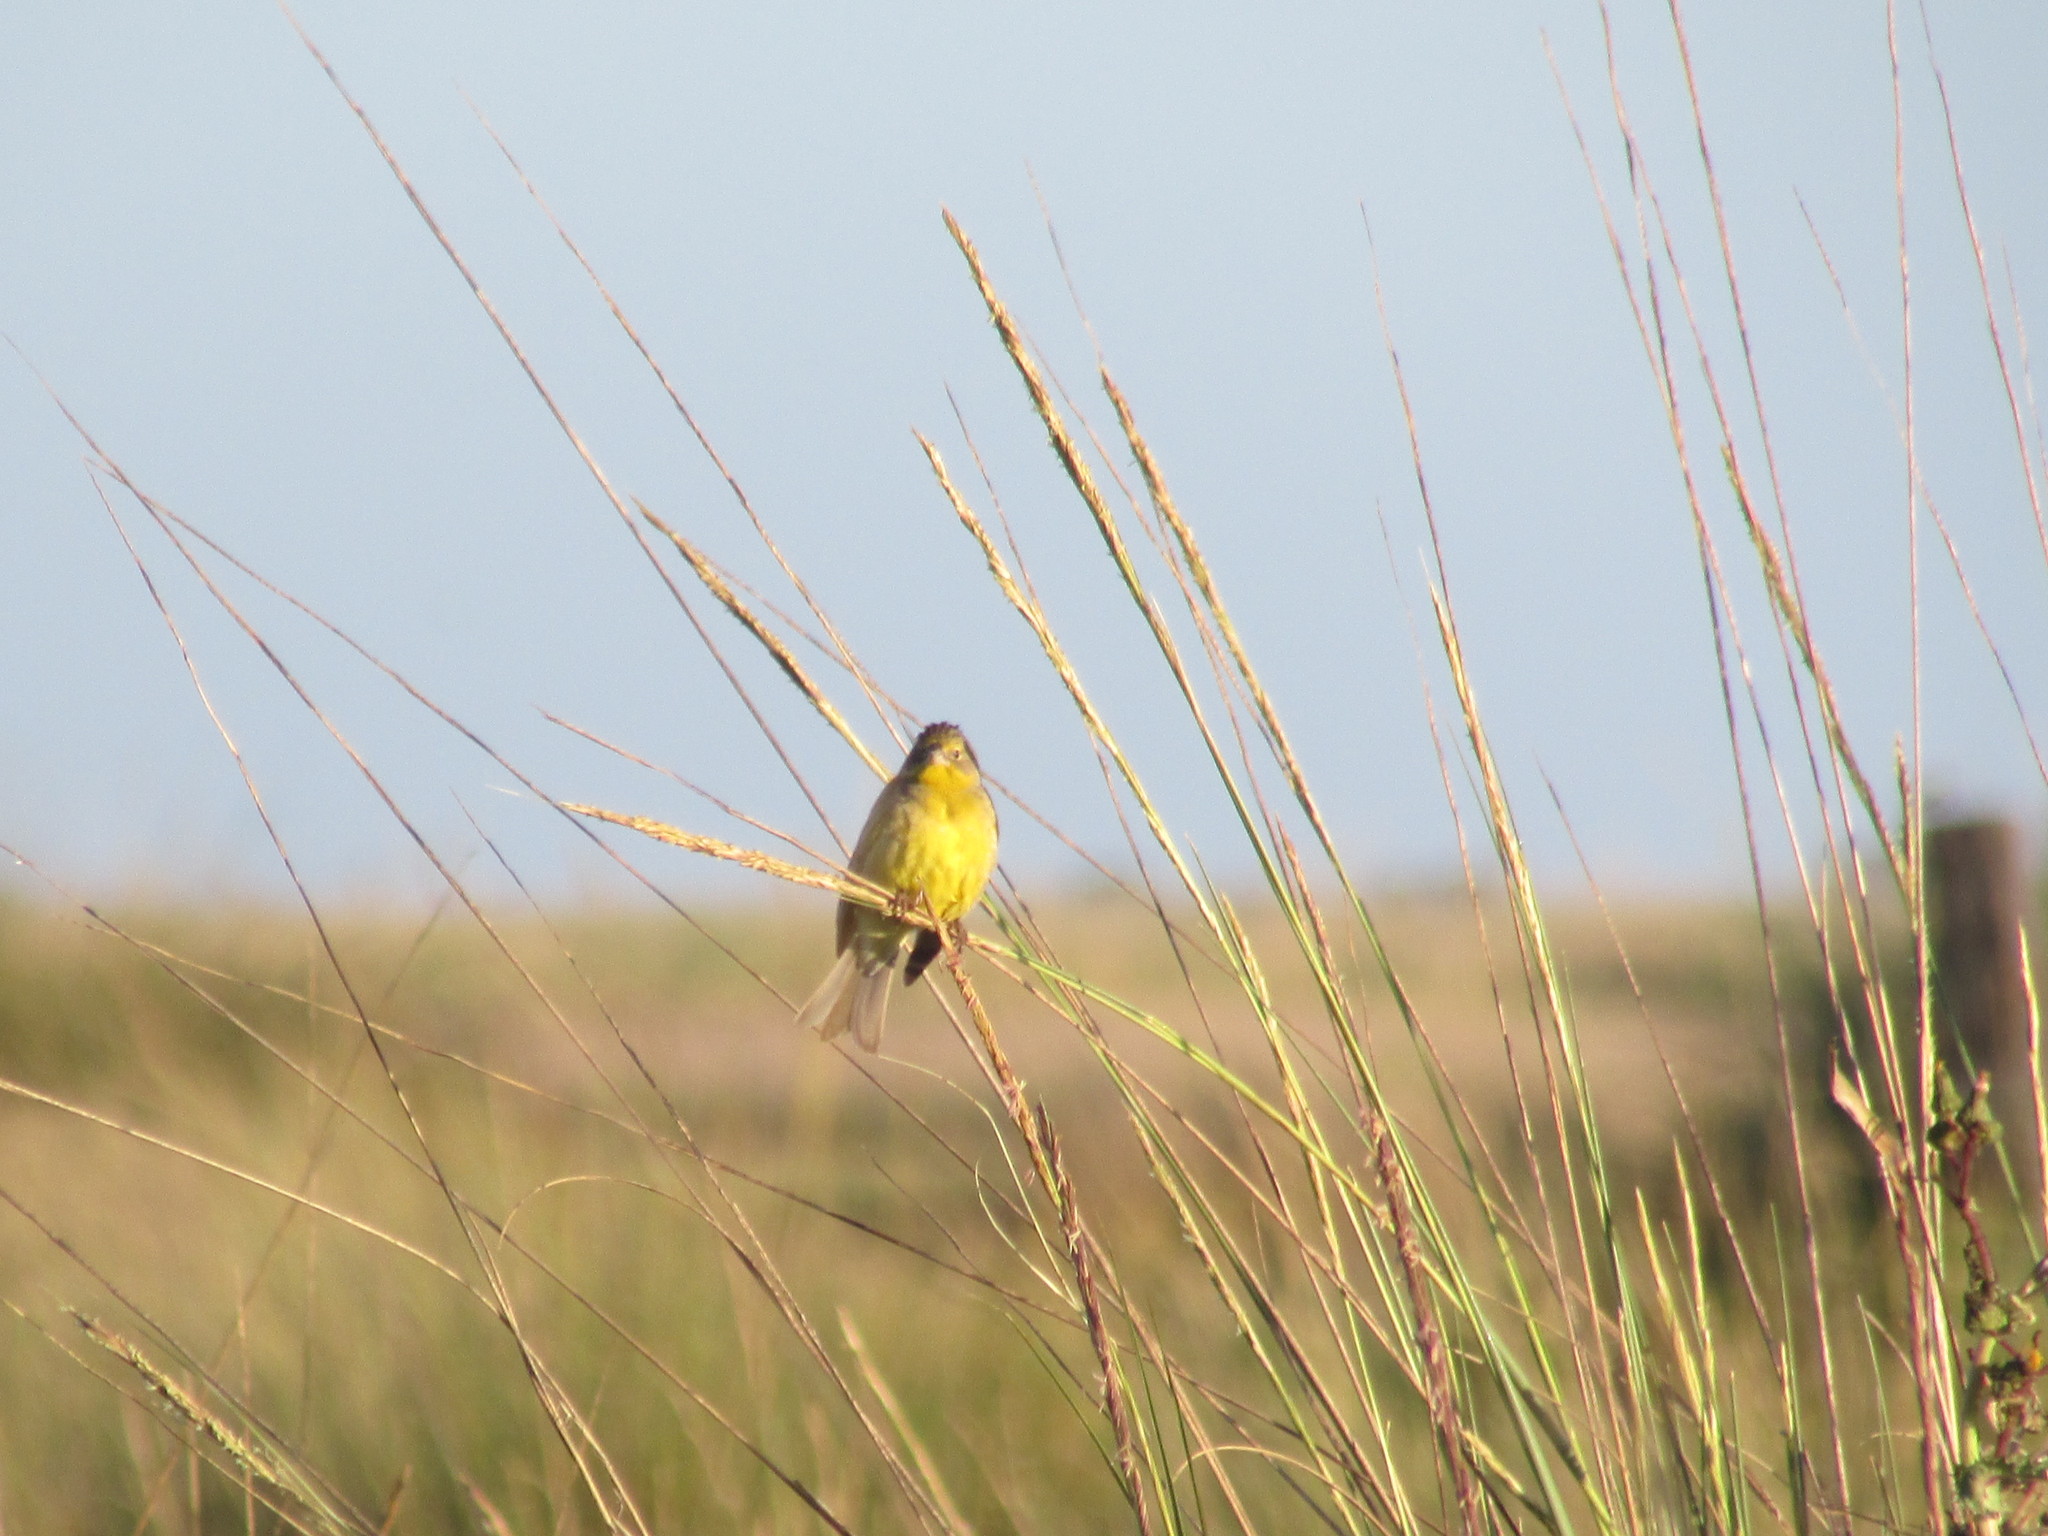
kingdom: Animalia
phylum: Chordata
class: Aves
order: Passeriformes
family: Thraupidae
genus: Sicalis
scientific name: Sicalis luteola
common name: Grassland yellow-finch
